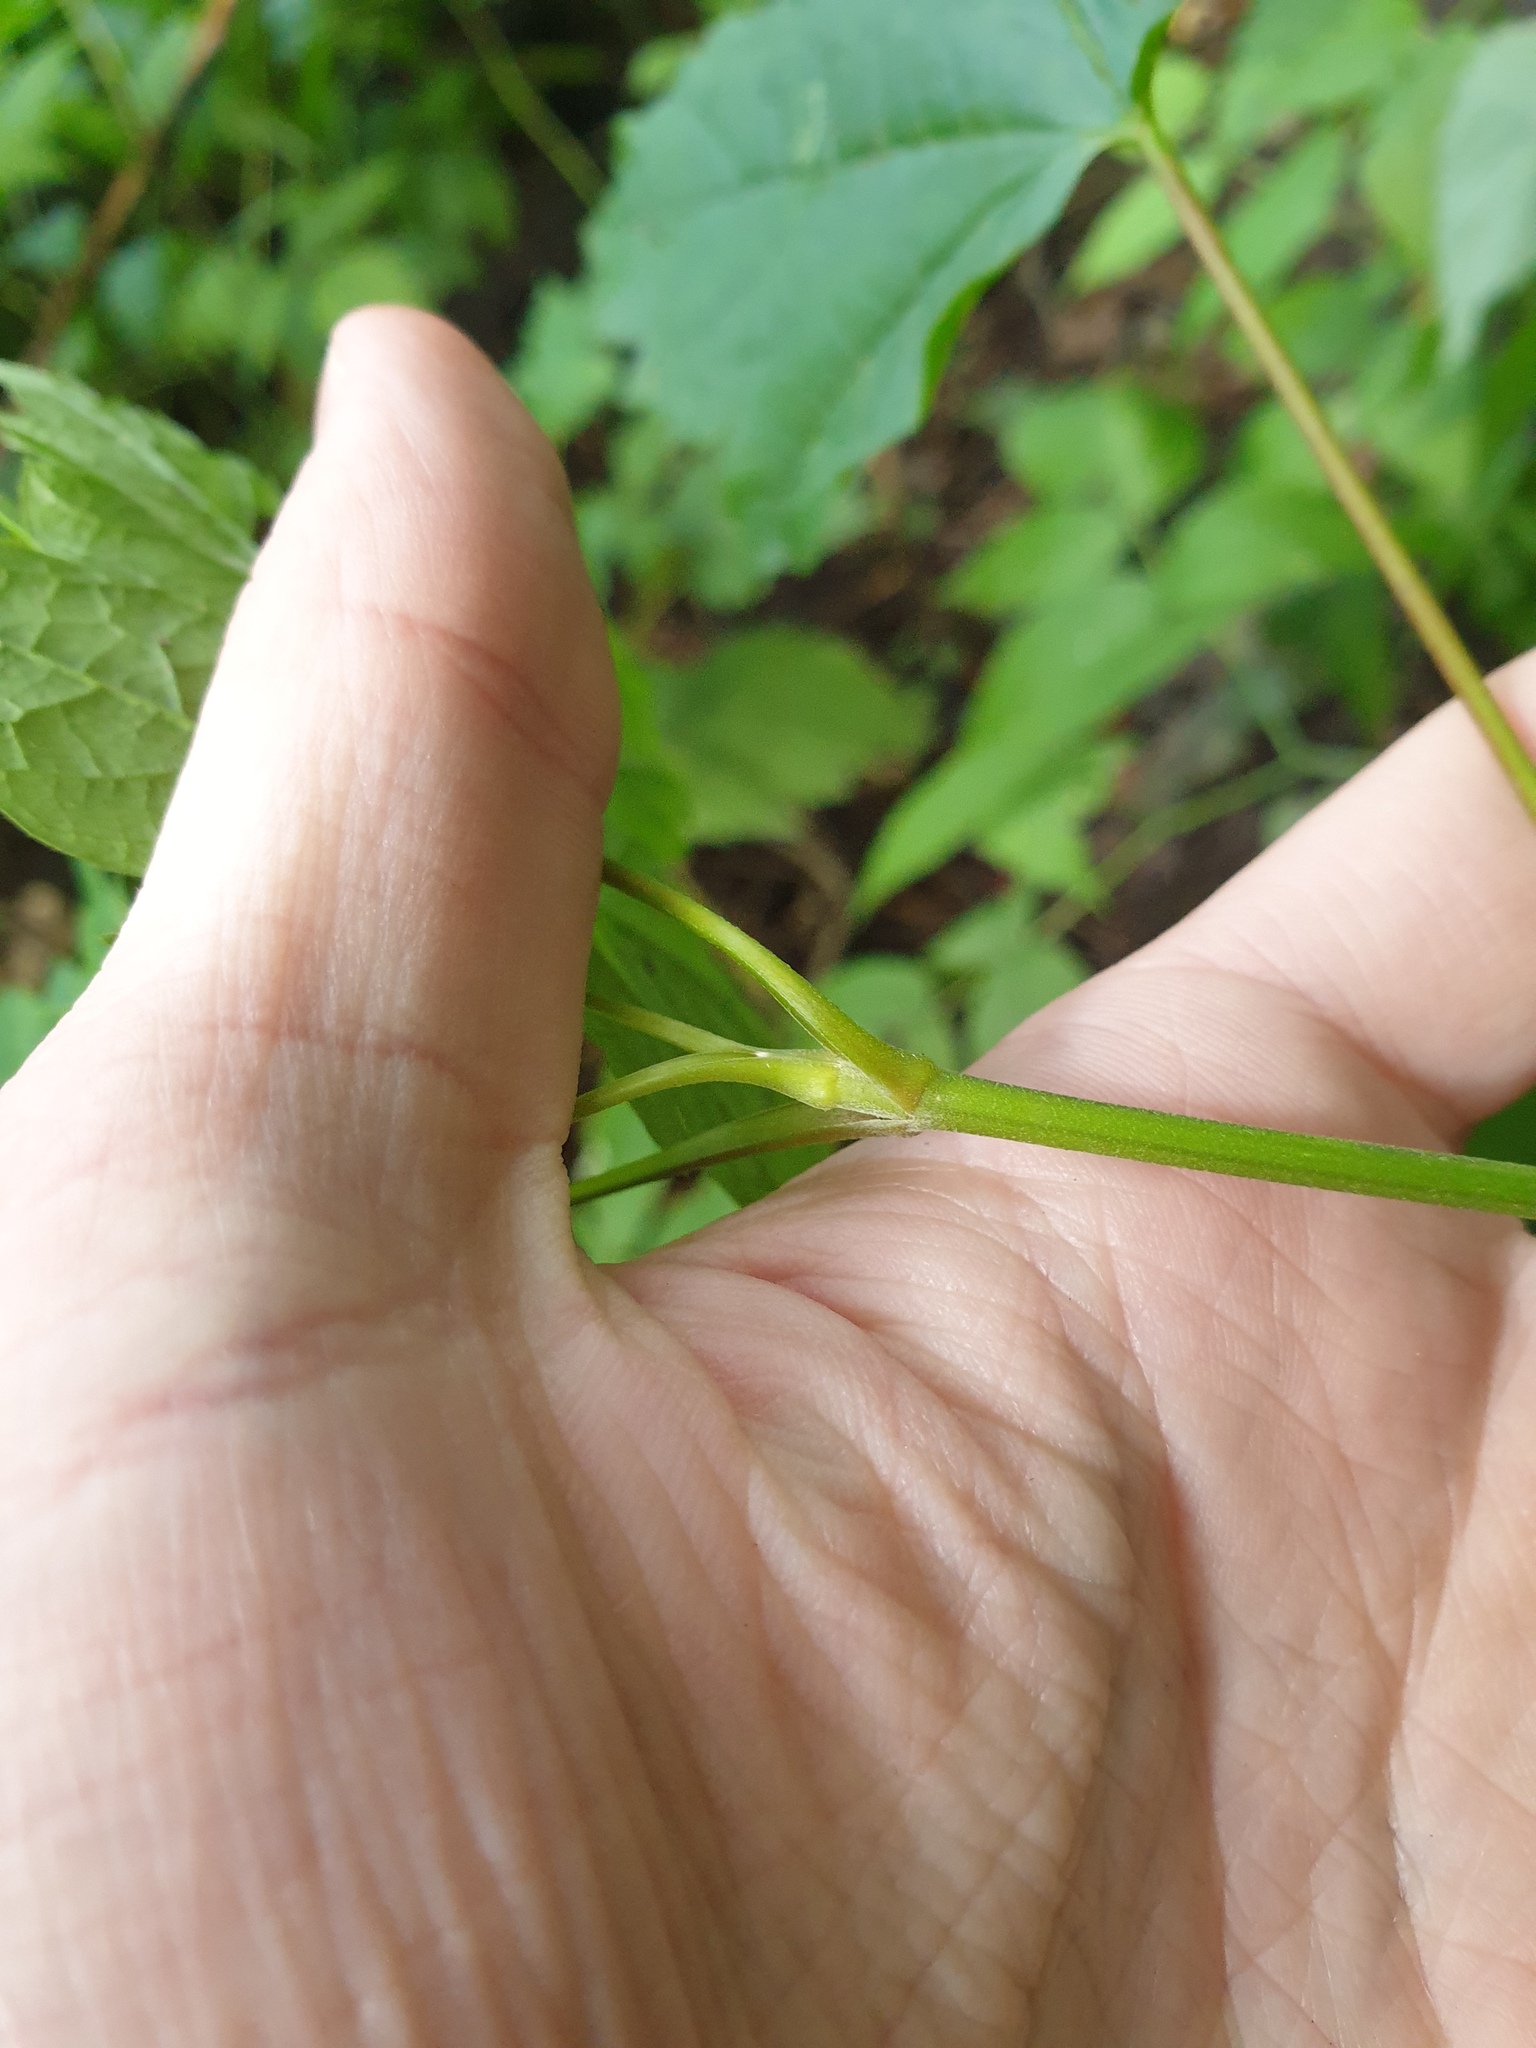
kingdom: Plantae
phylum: Tracheophyta
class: Magnoliopsida
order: Sapindales
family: Sapindaceae
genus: Acer
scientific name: Acer spicatum
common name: Mountain maple
